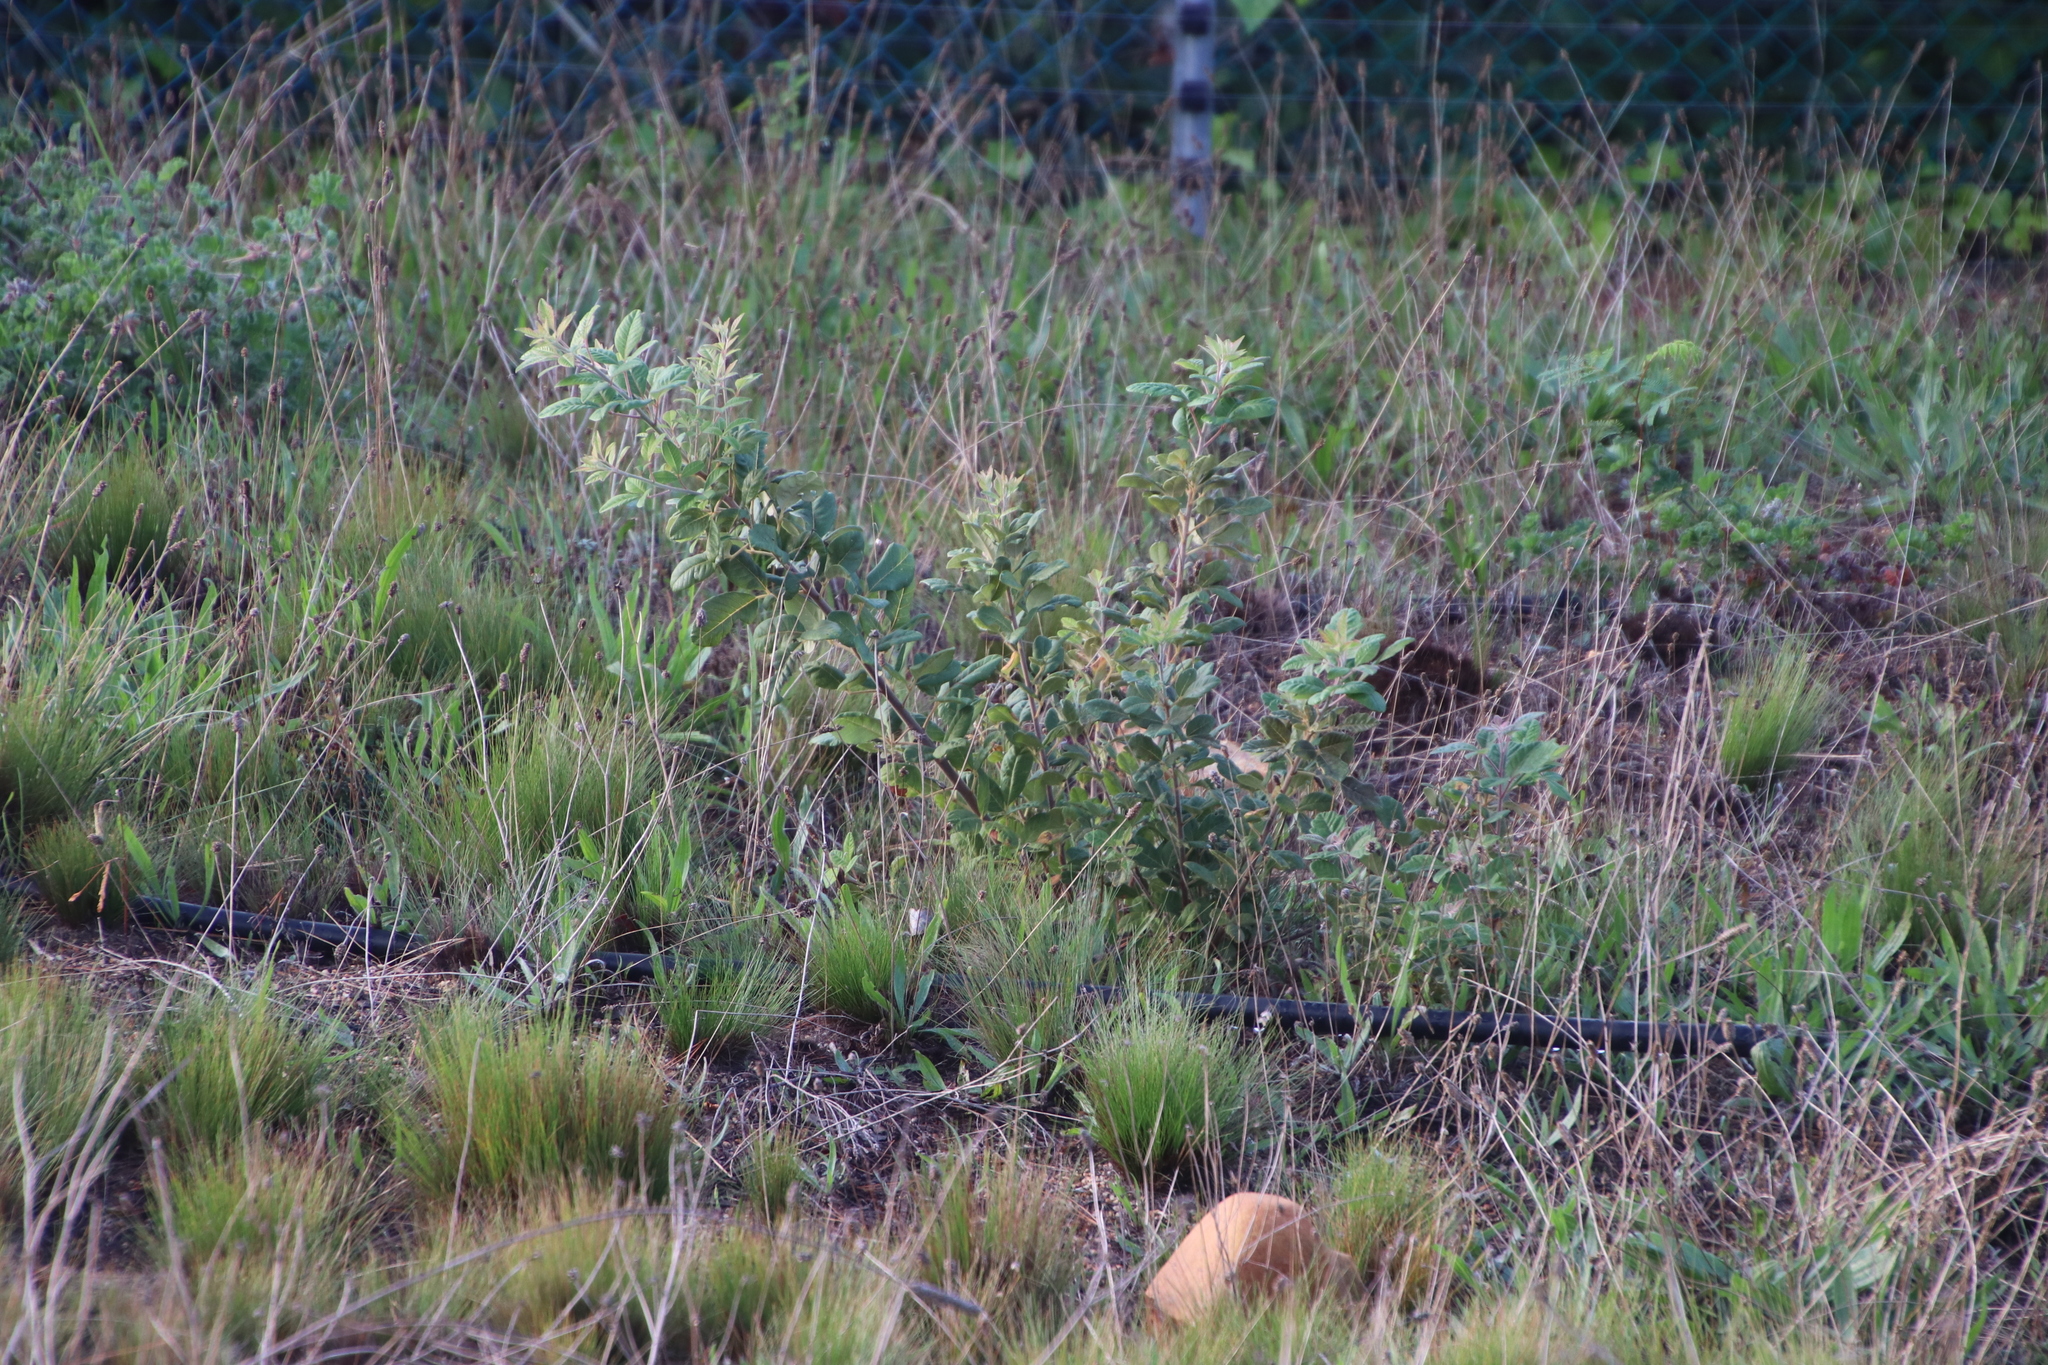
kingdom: Plantae
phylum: Tracheophyta
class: Magnoliopsida
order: Sapindales
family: Anacardiaceae
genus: Searsia
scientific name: Searsia tomentosa
